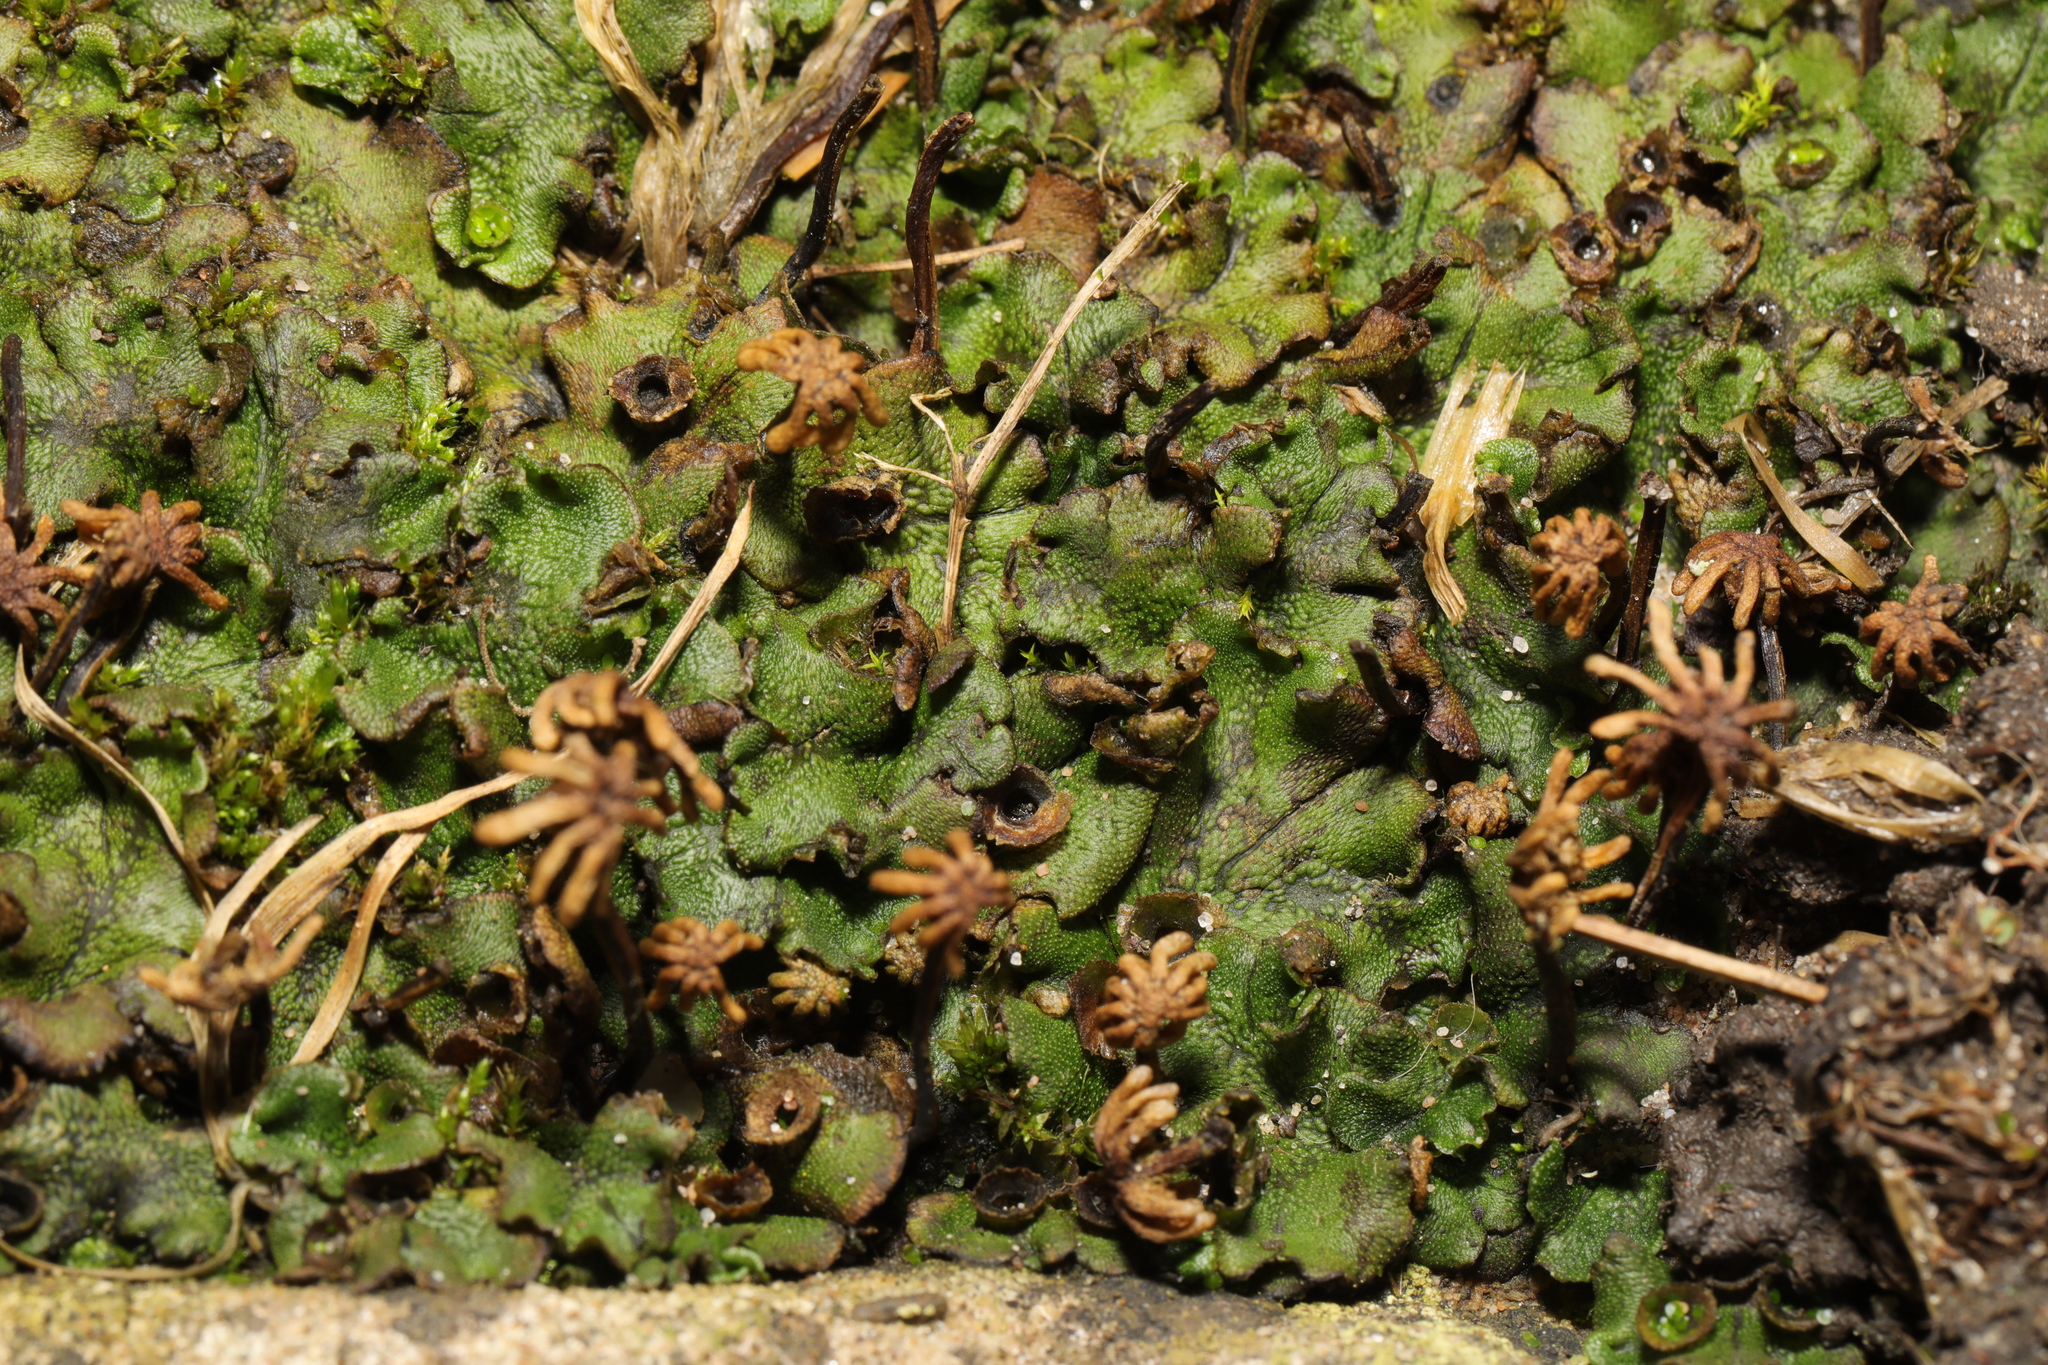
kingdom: Plantae
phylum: Marchantiophyta
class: Marchantiopsida
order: Marchantiales
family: Marchantiaceae
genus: Marchantia
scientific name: Marchantia polymorpha
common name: Common liverwort
